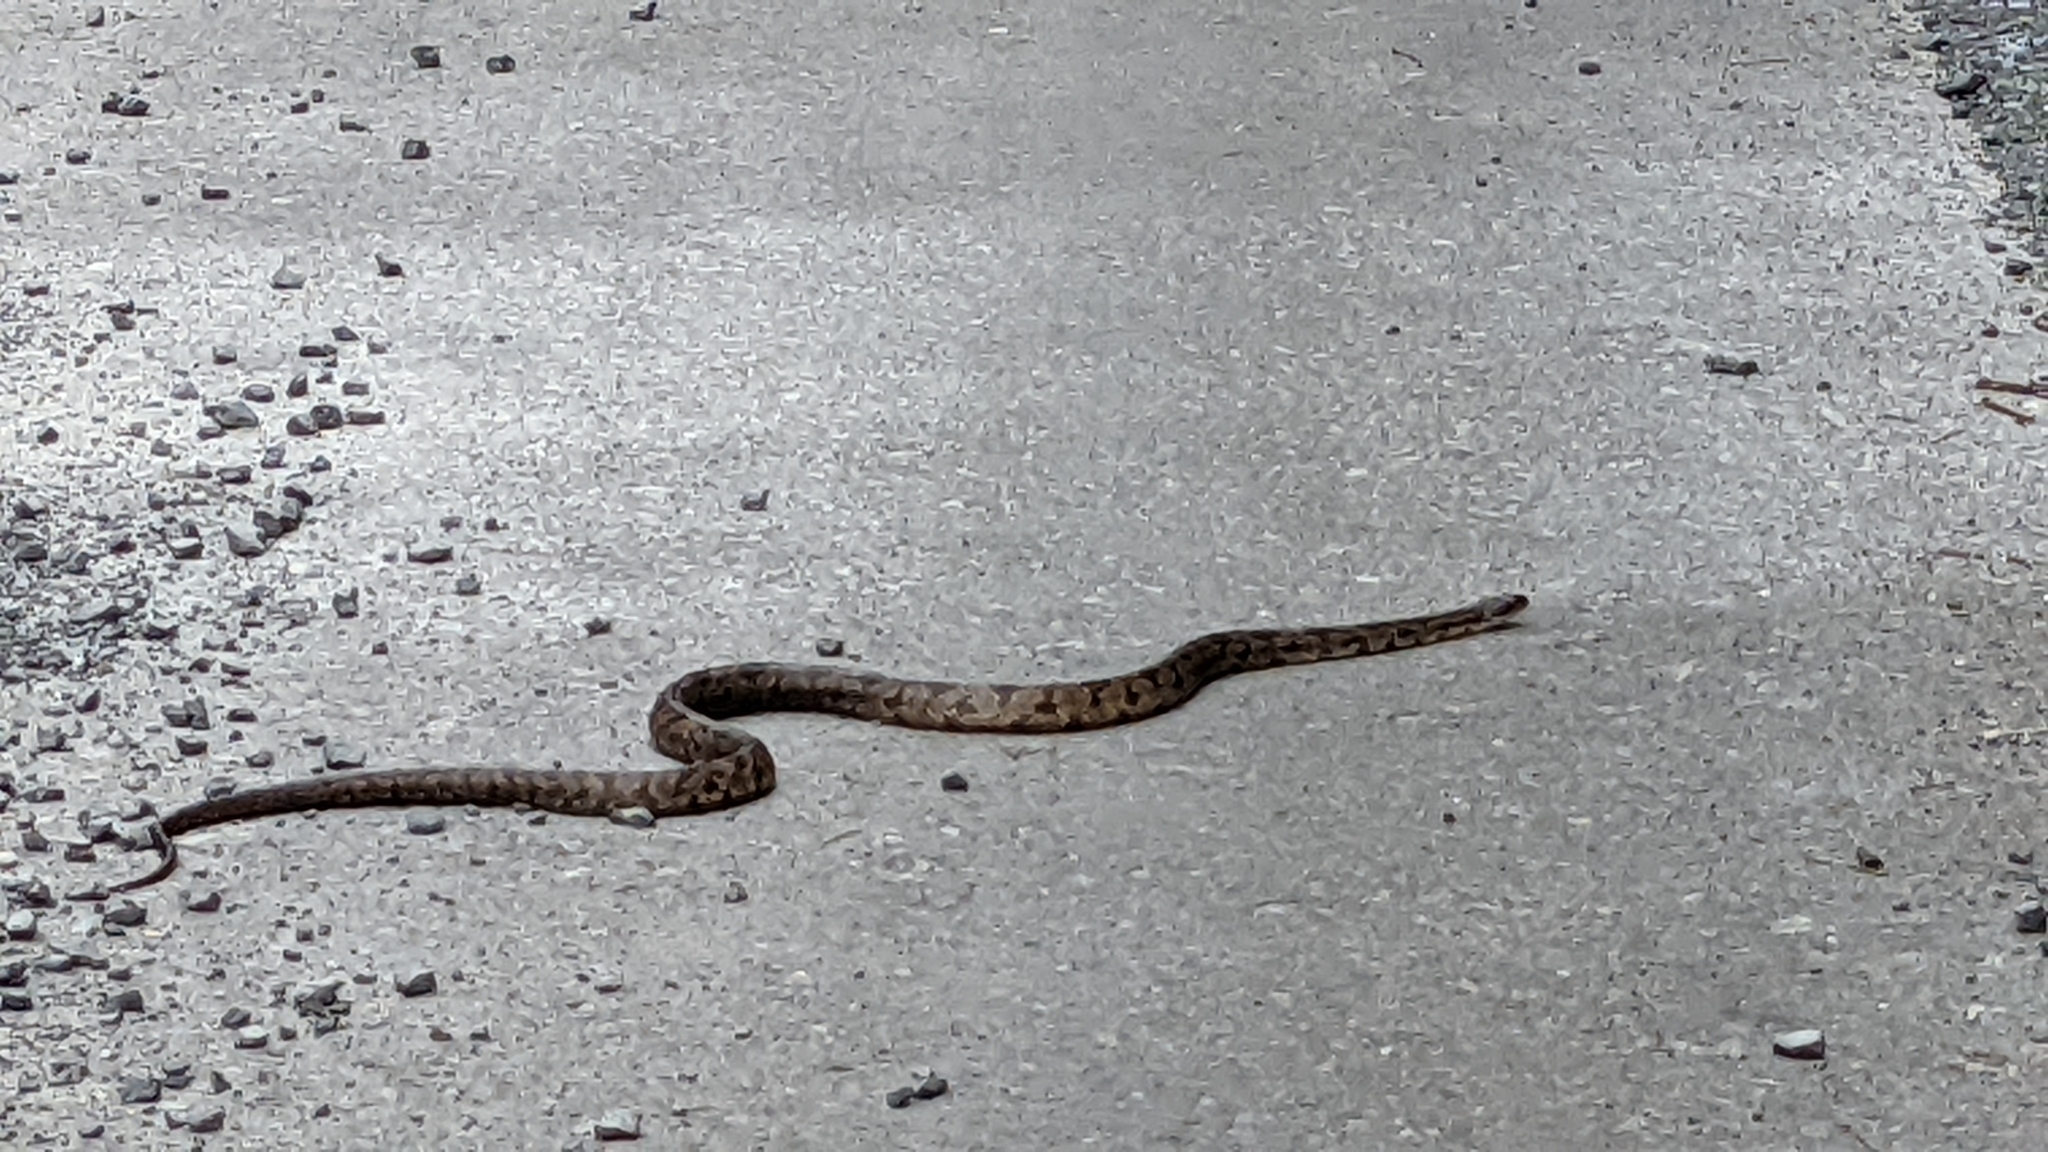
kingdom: Animalia
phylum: Chordata
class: Squamata
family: Colubridae
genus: Pantherophis
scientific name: Pantherophis obsoletus
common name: Black rat snake
